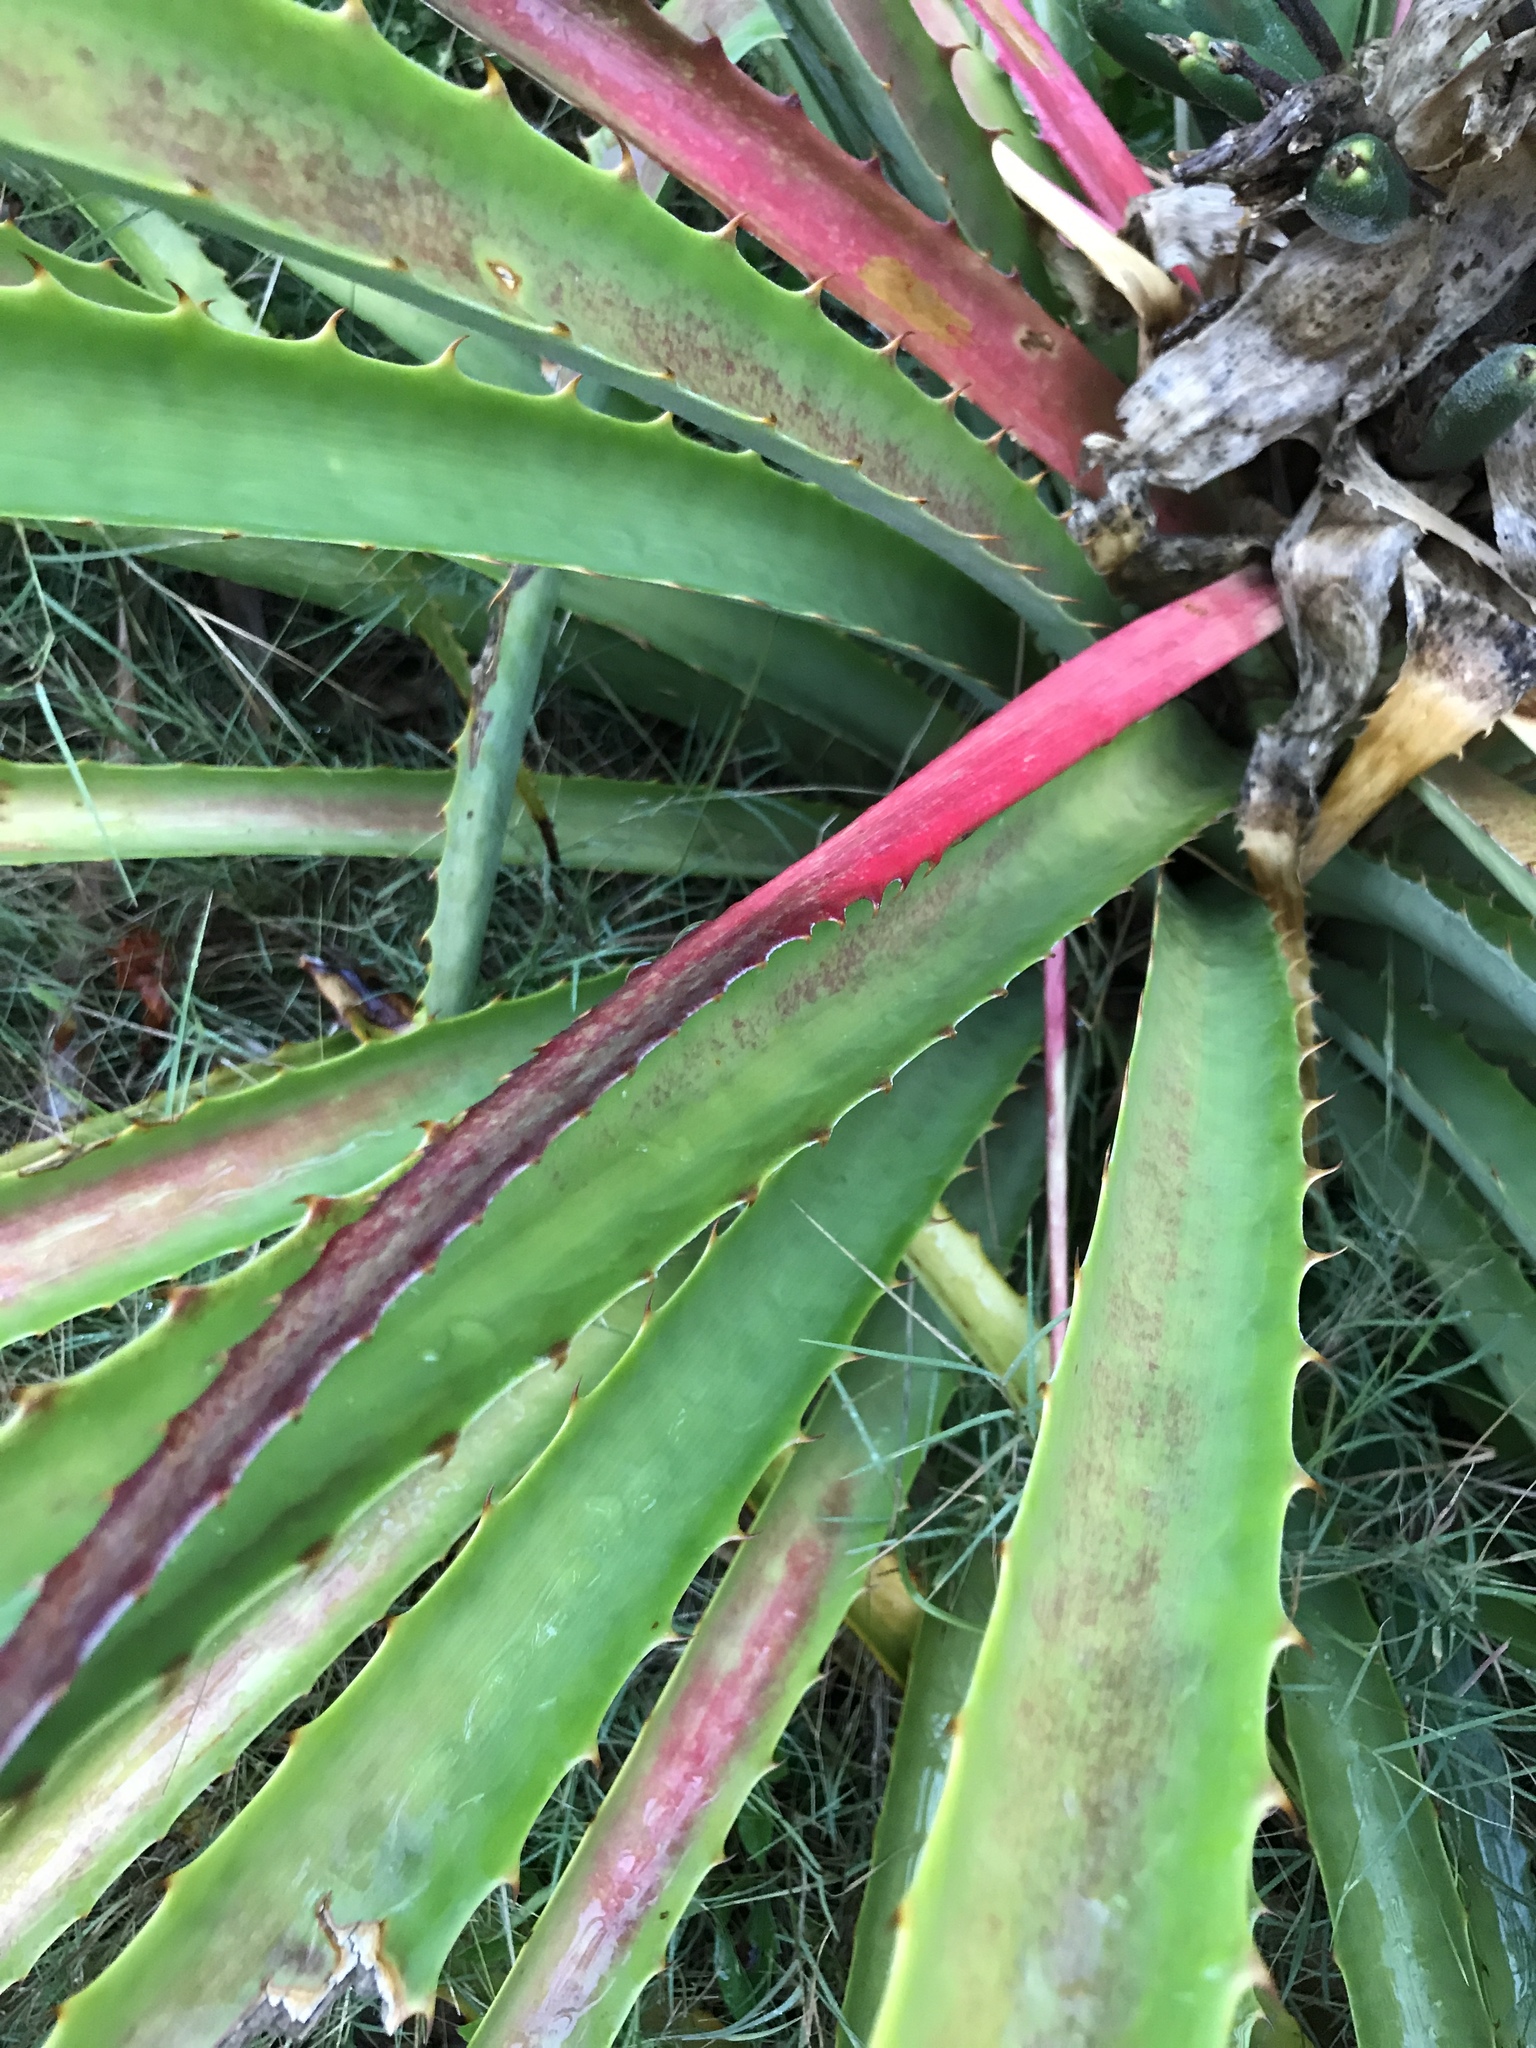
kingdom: Plantae
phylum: Tracheophyta
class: Liliopsida
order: Poales
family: Bromeliaceae
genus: Bromelia
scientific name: Bromelia antiacantha
